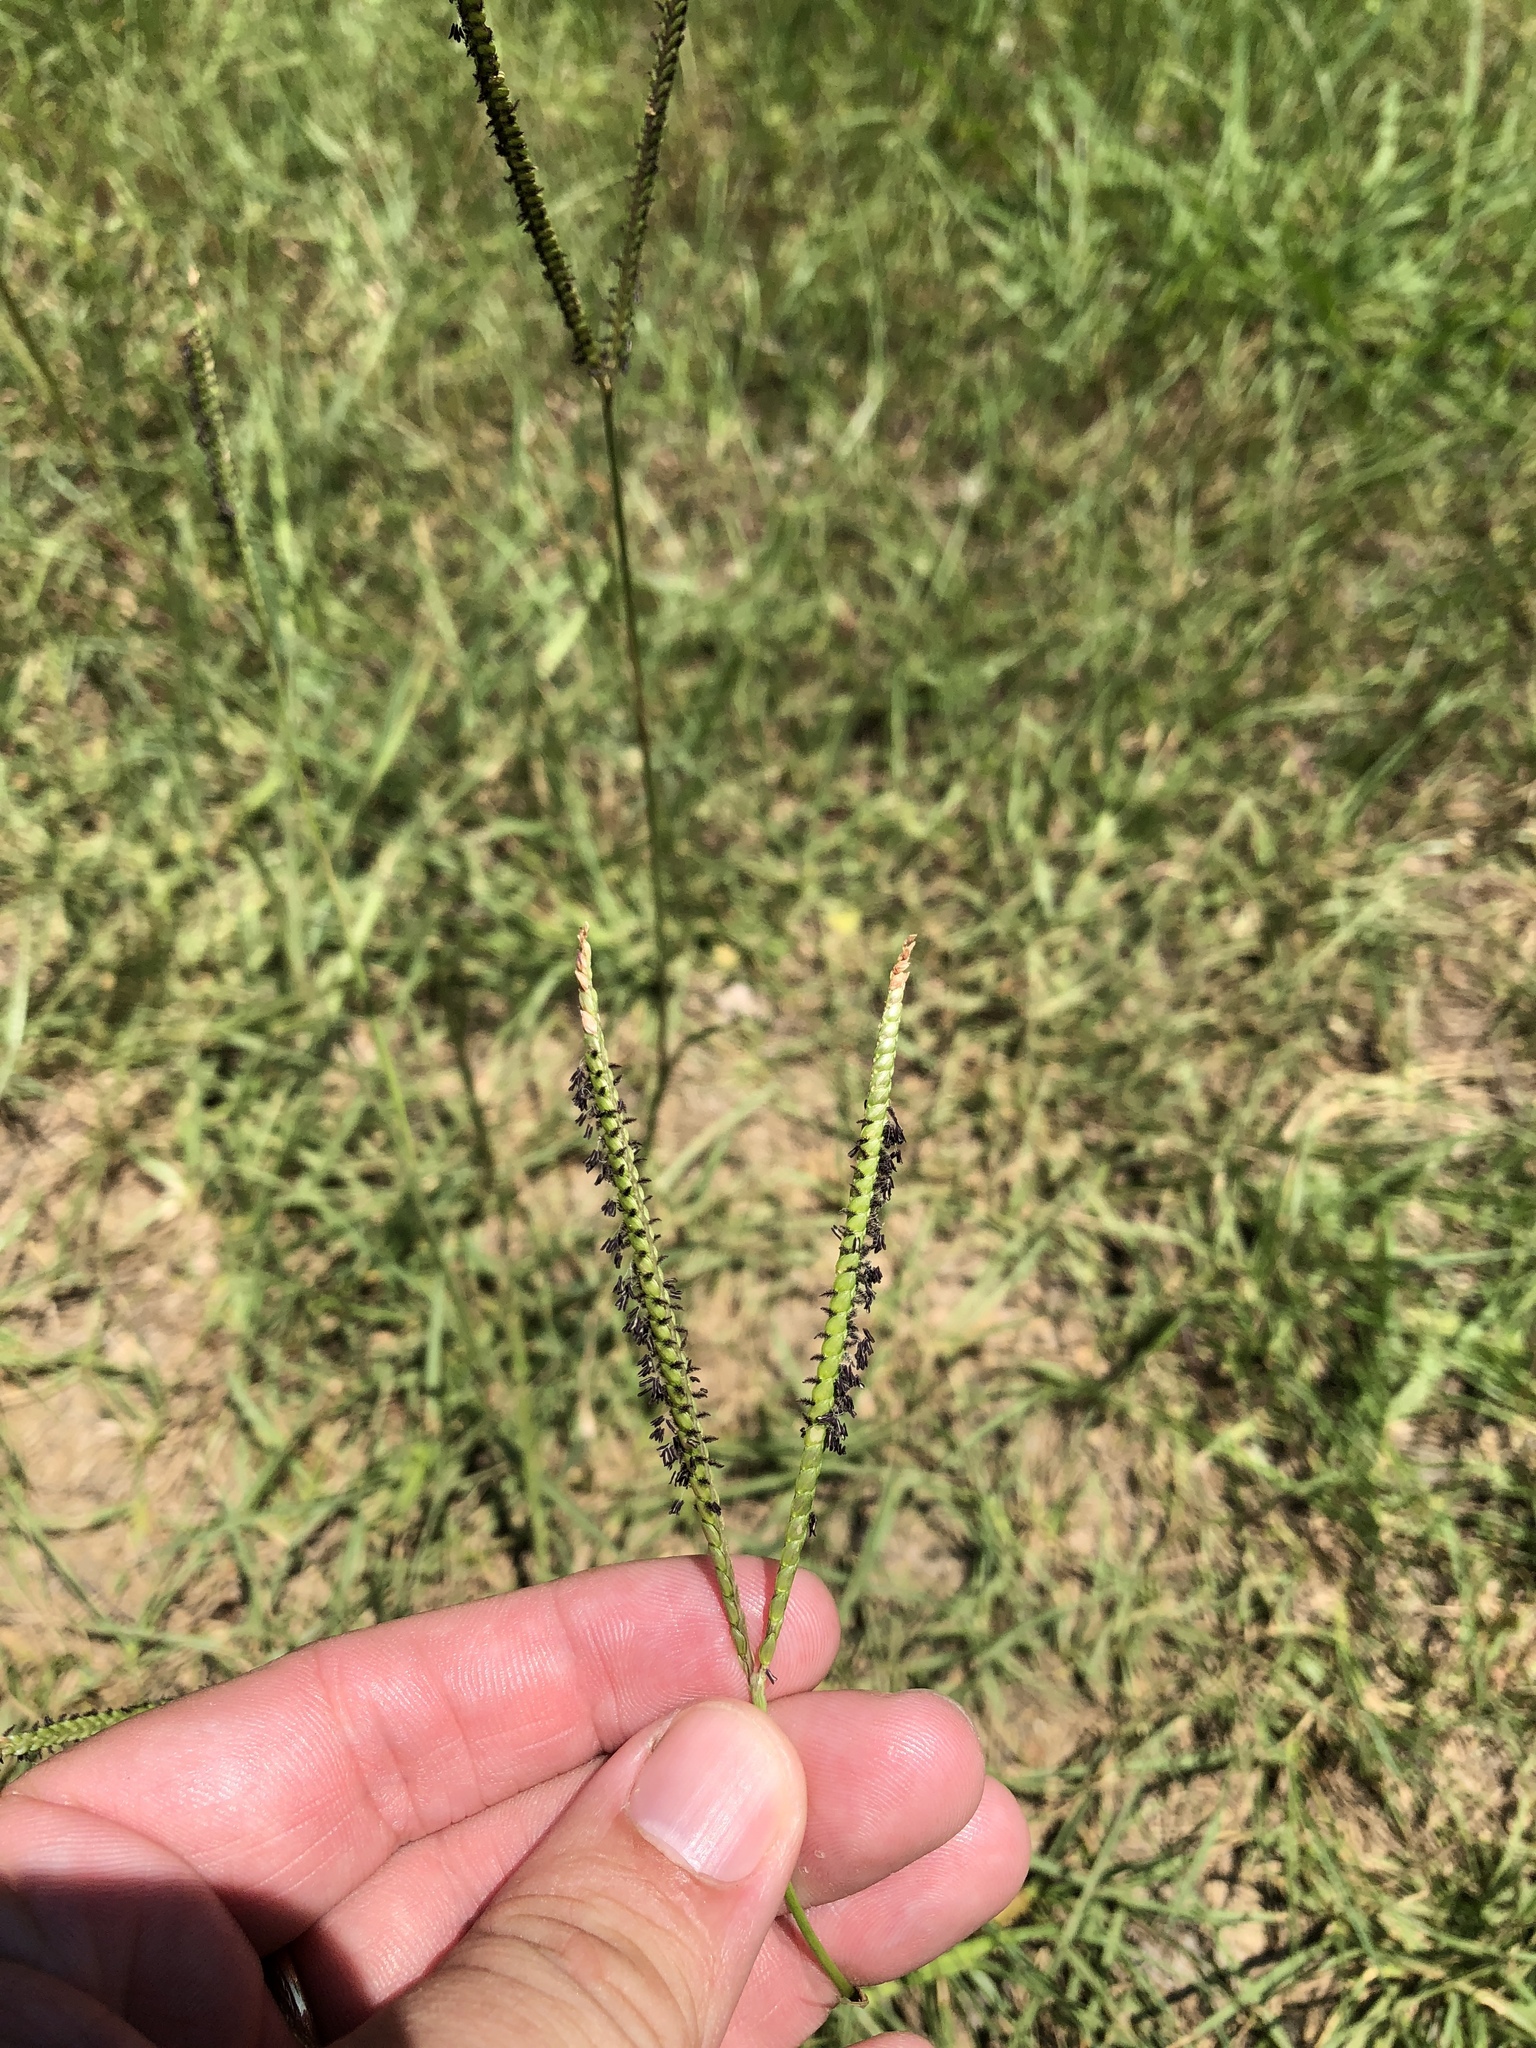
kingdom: Plantae
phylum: Tracheophyta
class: Liliopsida
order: Poales
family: Poaceae
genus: Paspalum
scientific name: Paspalum notatum
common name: Bahiagrass
